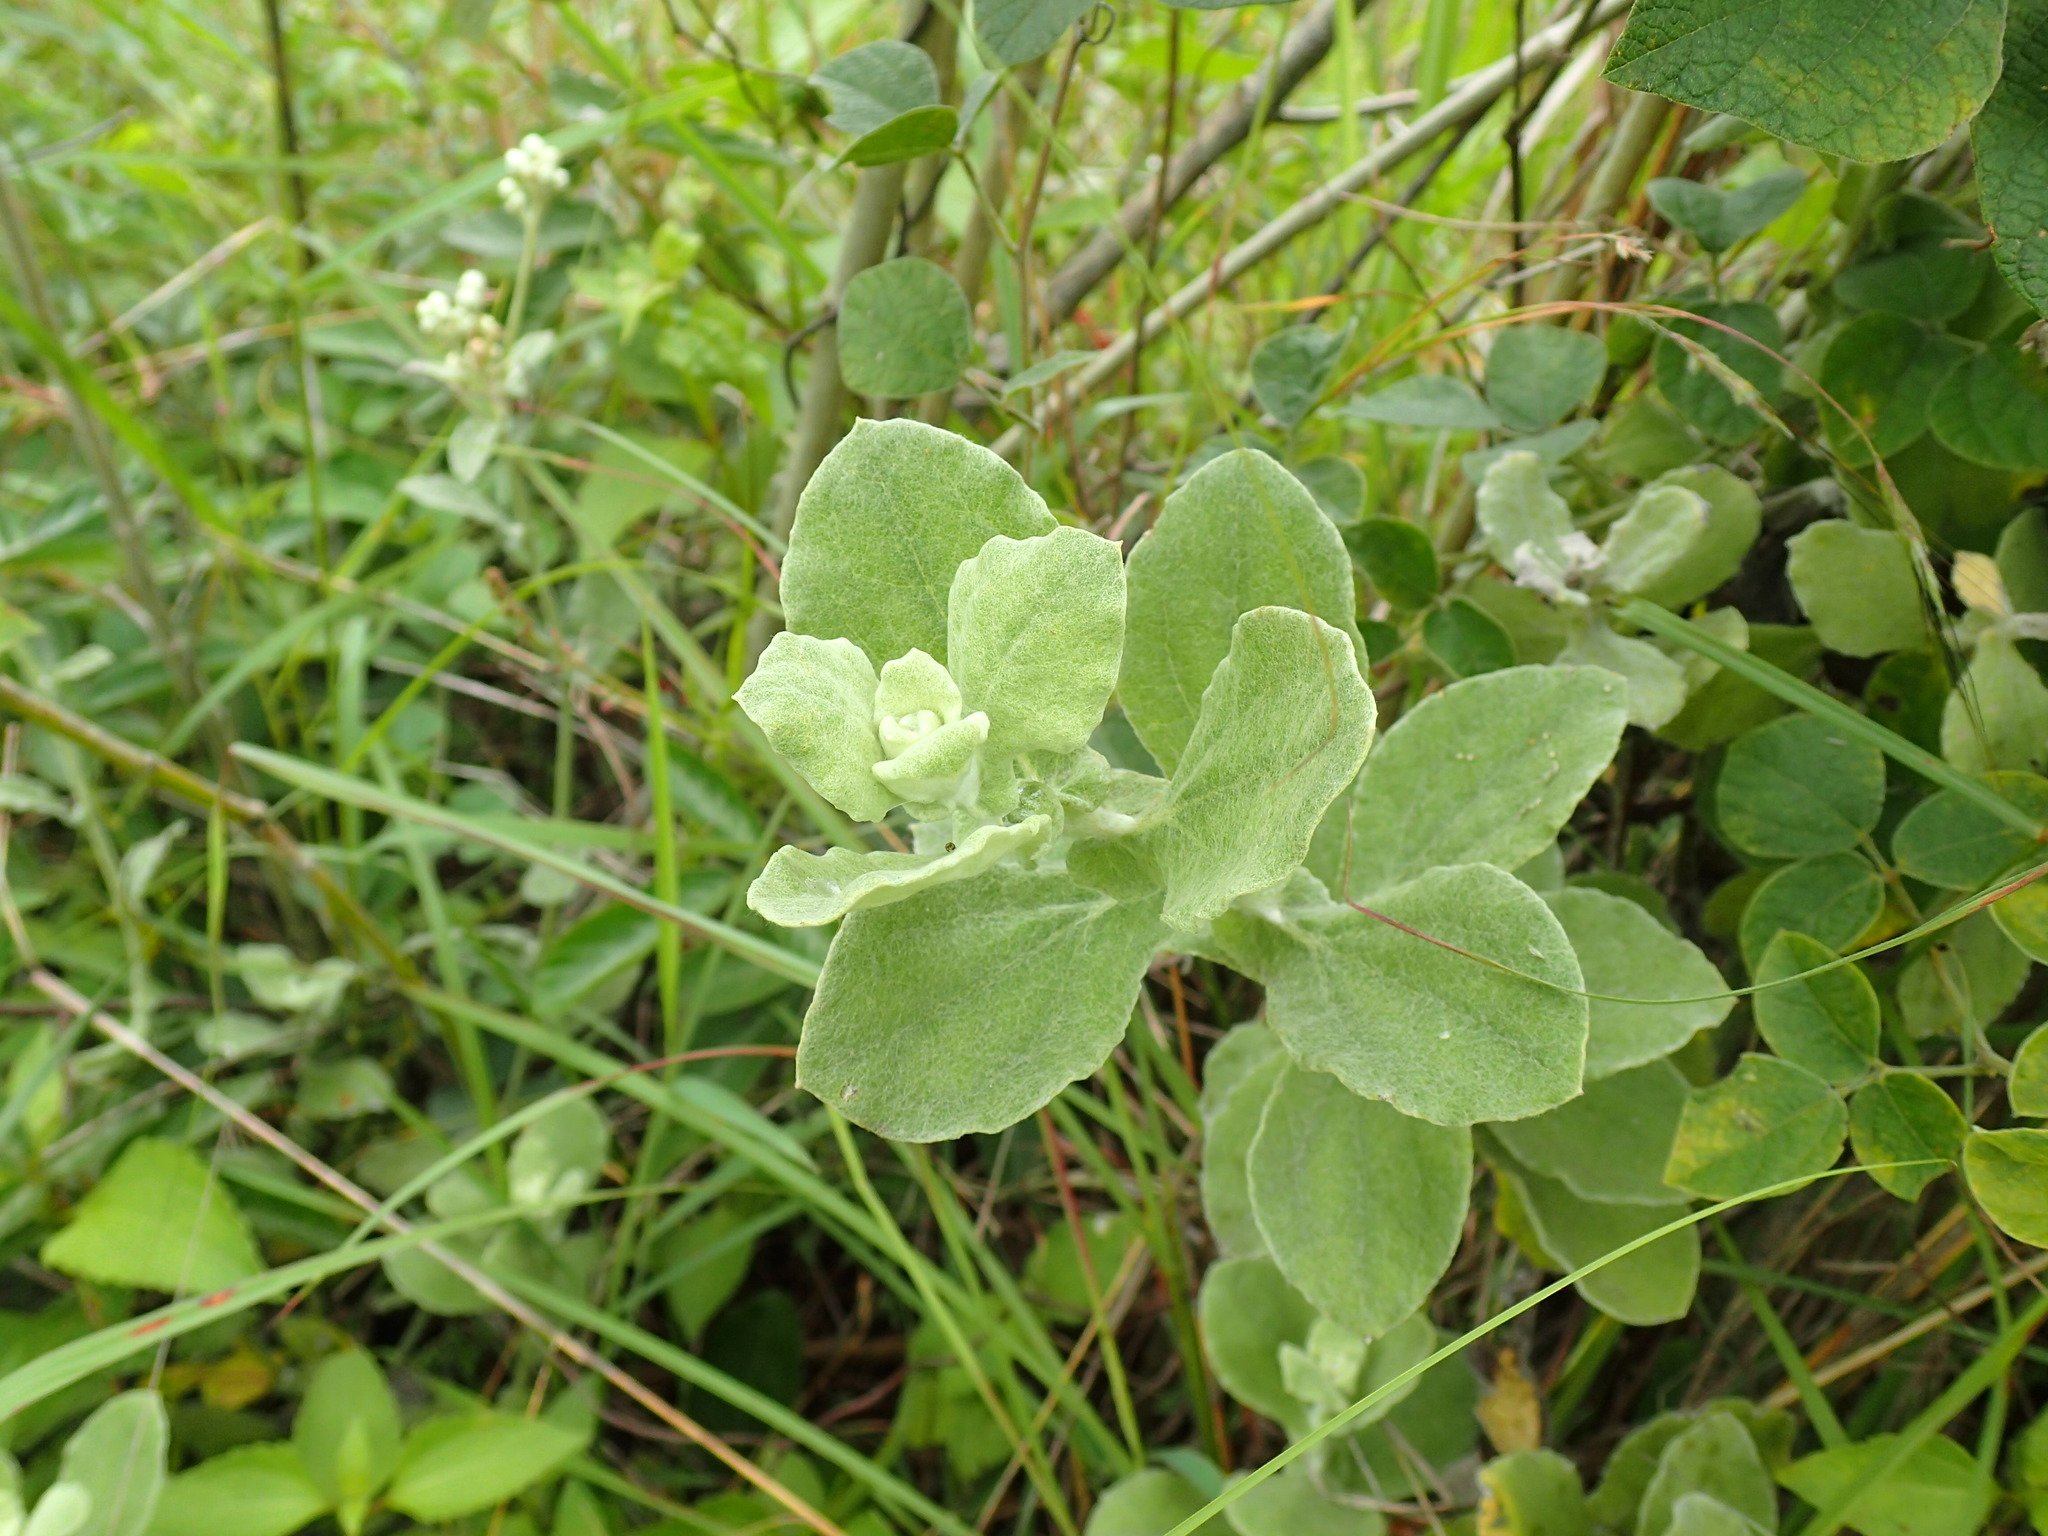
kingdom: Plantae
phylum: Tracheophyta
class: Magnoliopsida
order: Asterales
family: Asteraceae
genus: Helichrysum
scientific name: Helichrysum panduratum
